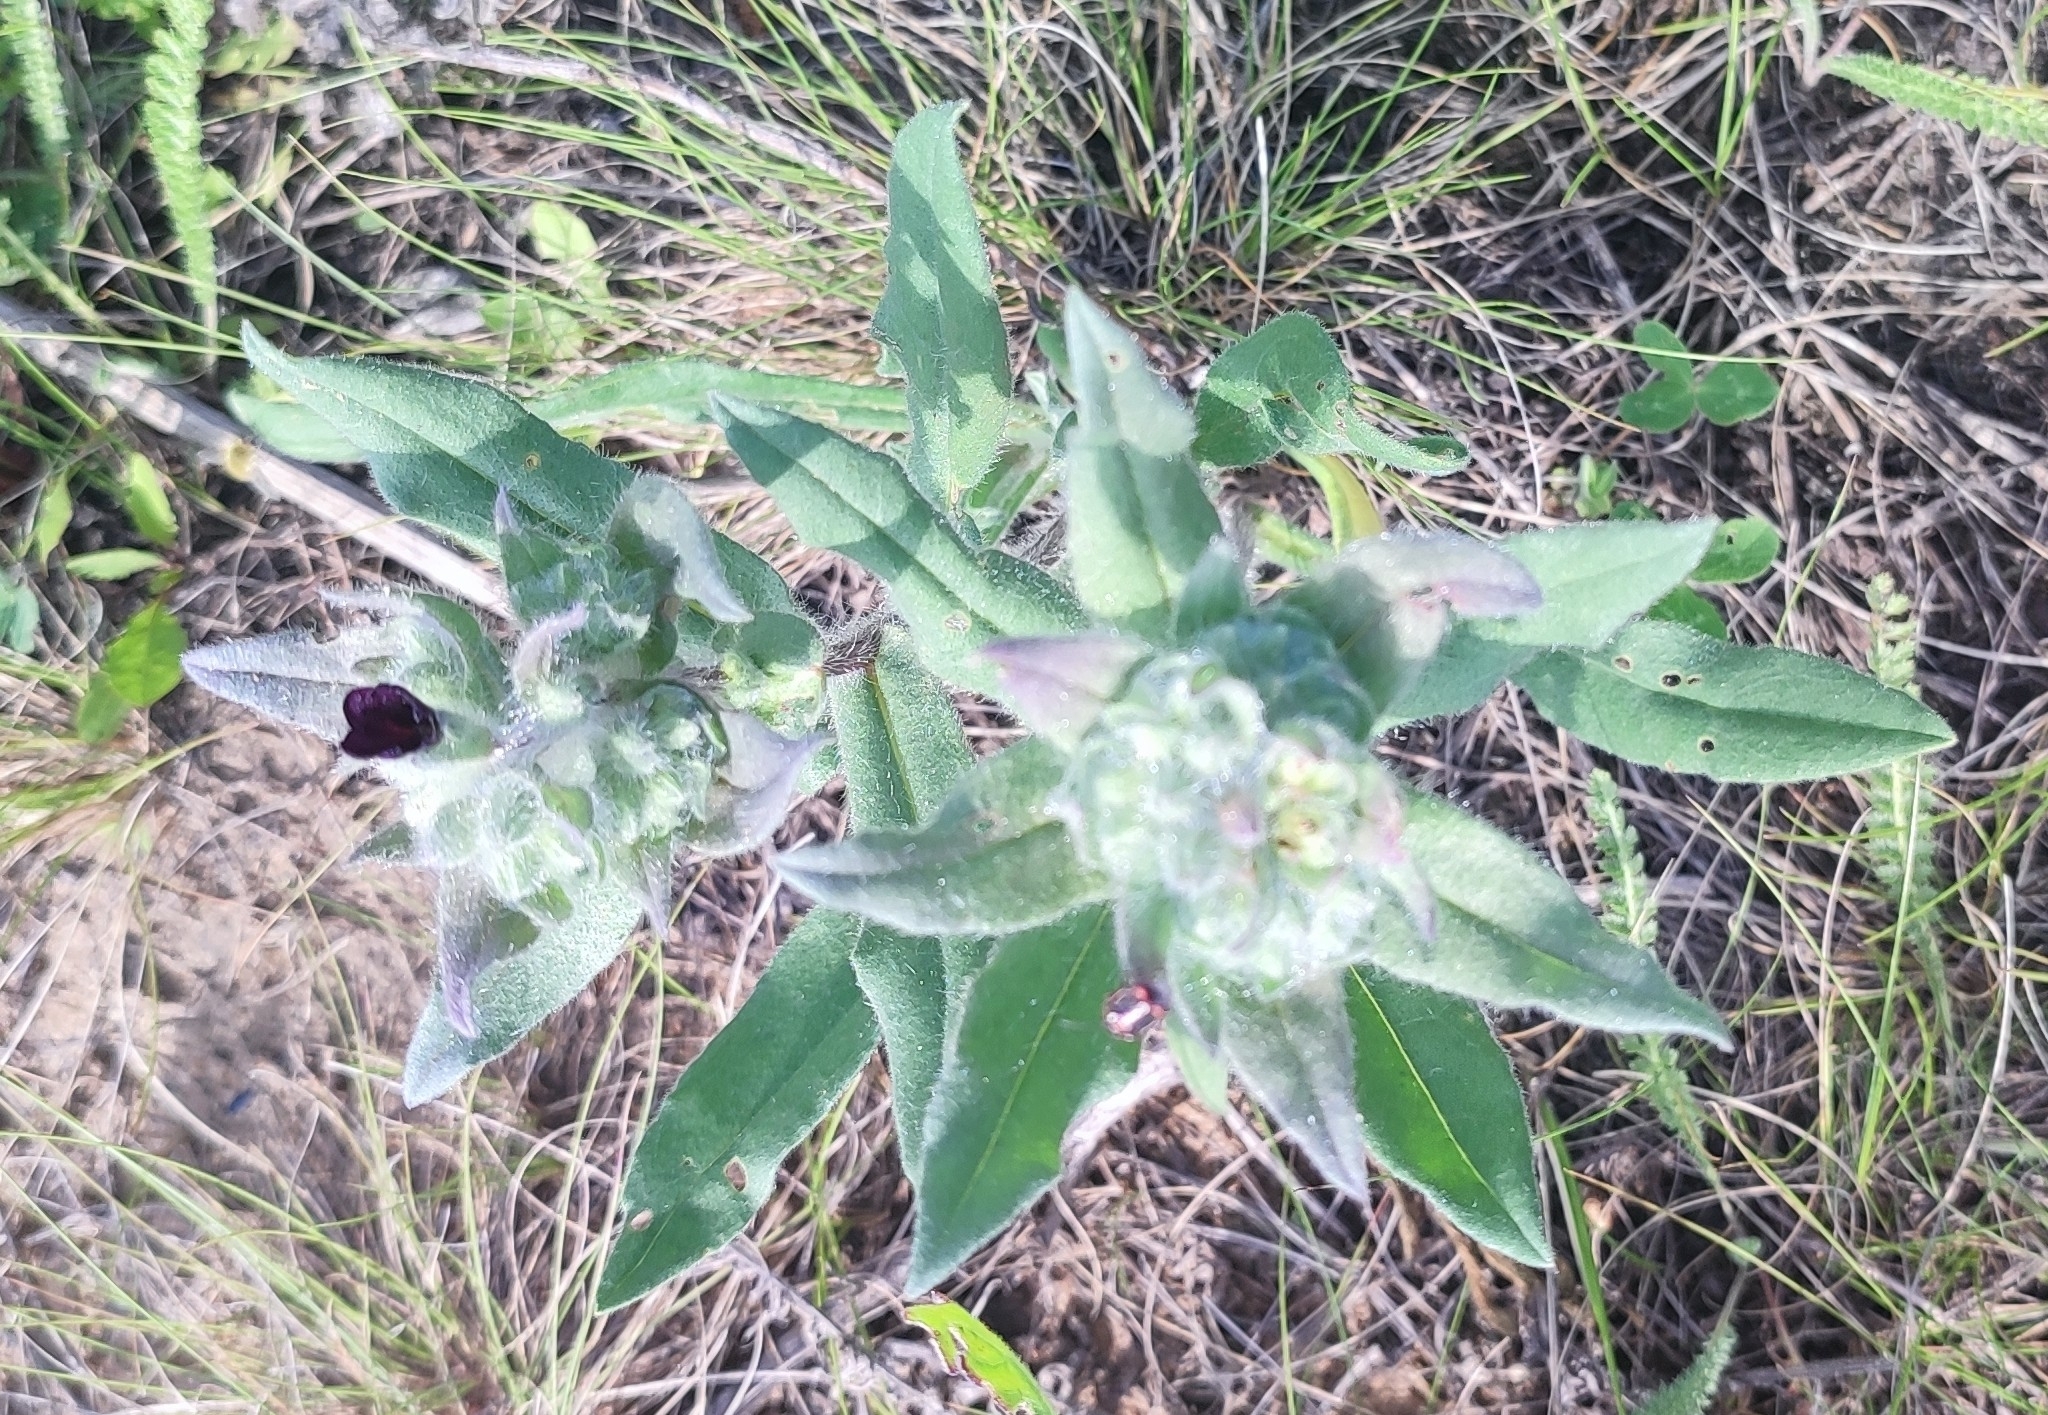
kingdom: Plantae
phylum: Tracheophyta
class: Magnoliopsida
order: Boraginales
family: Boraginaceae
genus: Nonea
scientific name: Nonea pulla
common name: Brown nonea
